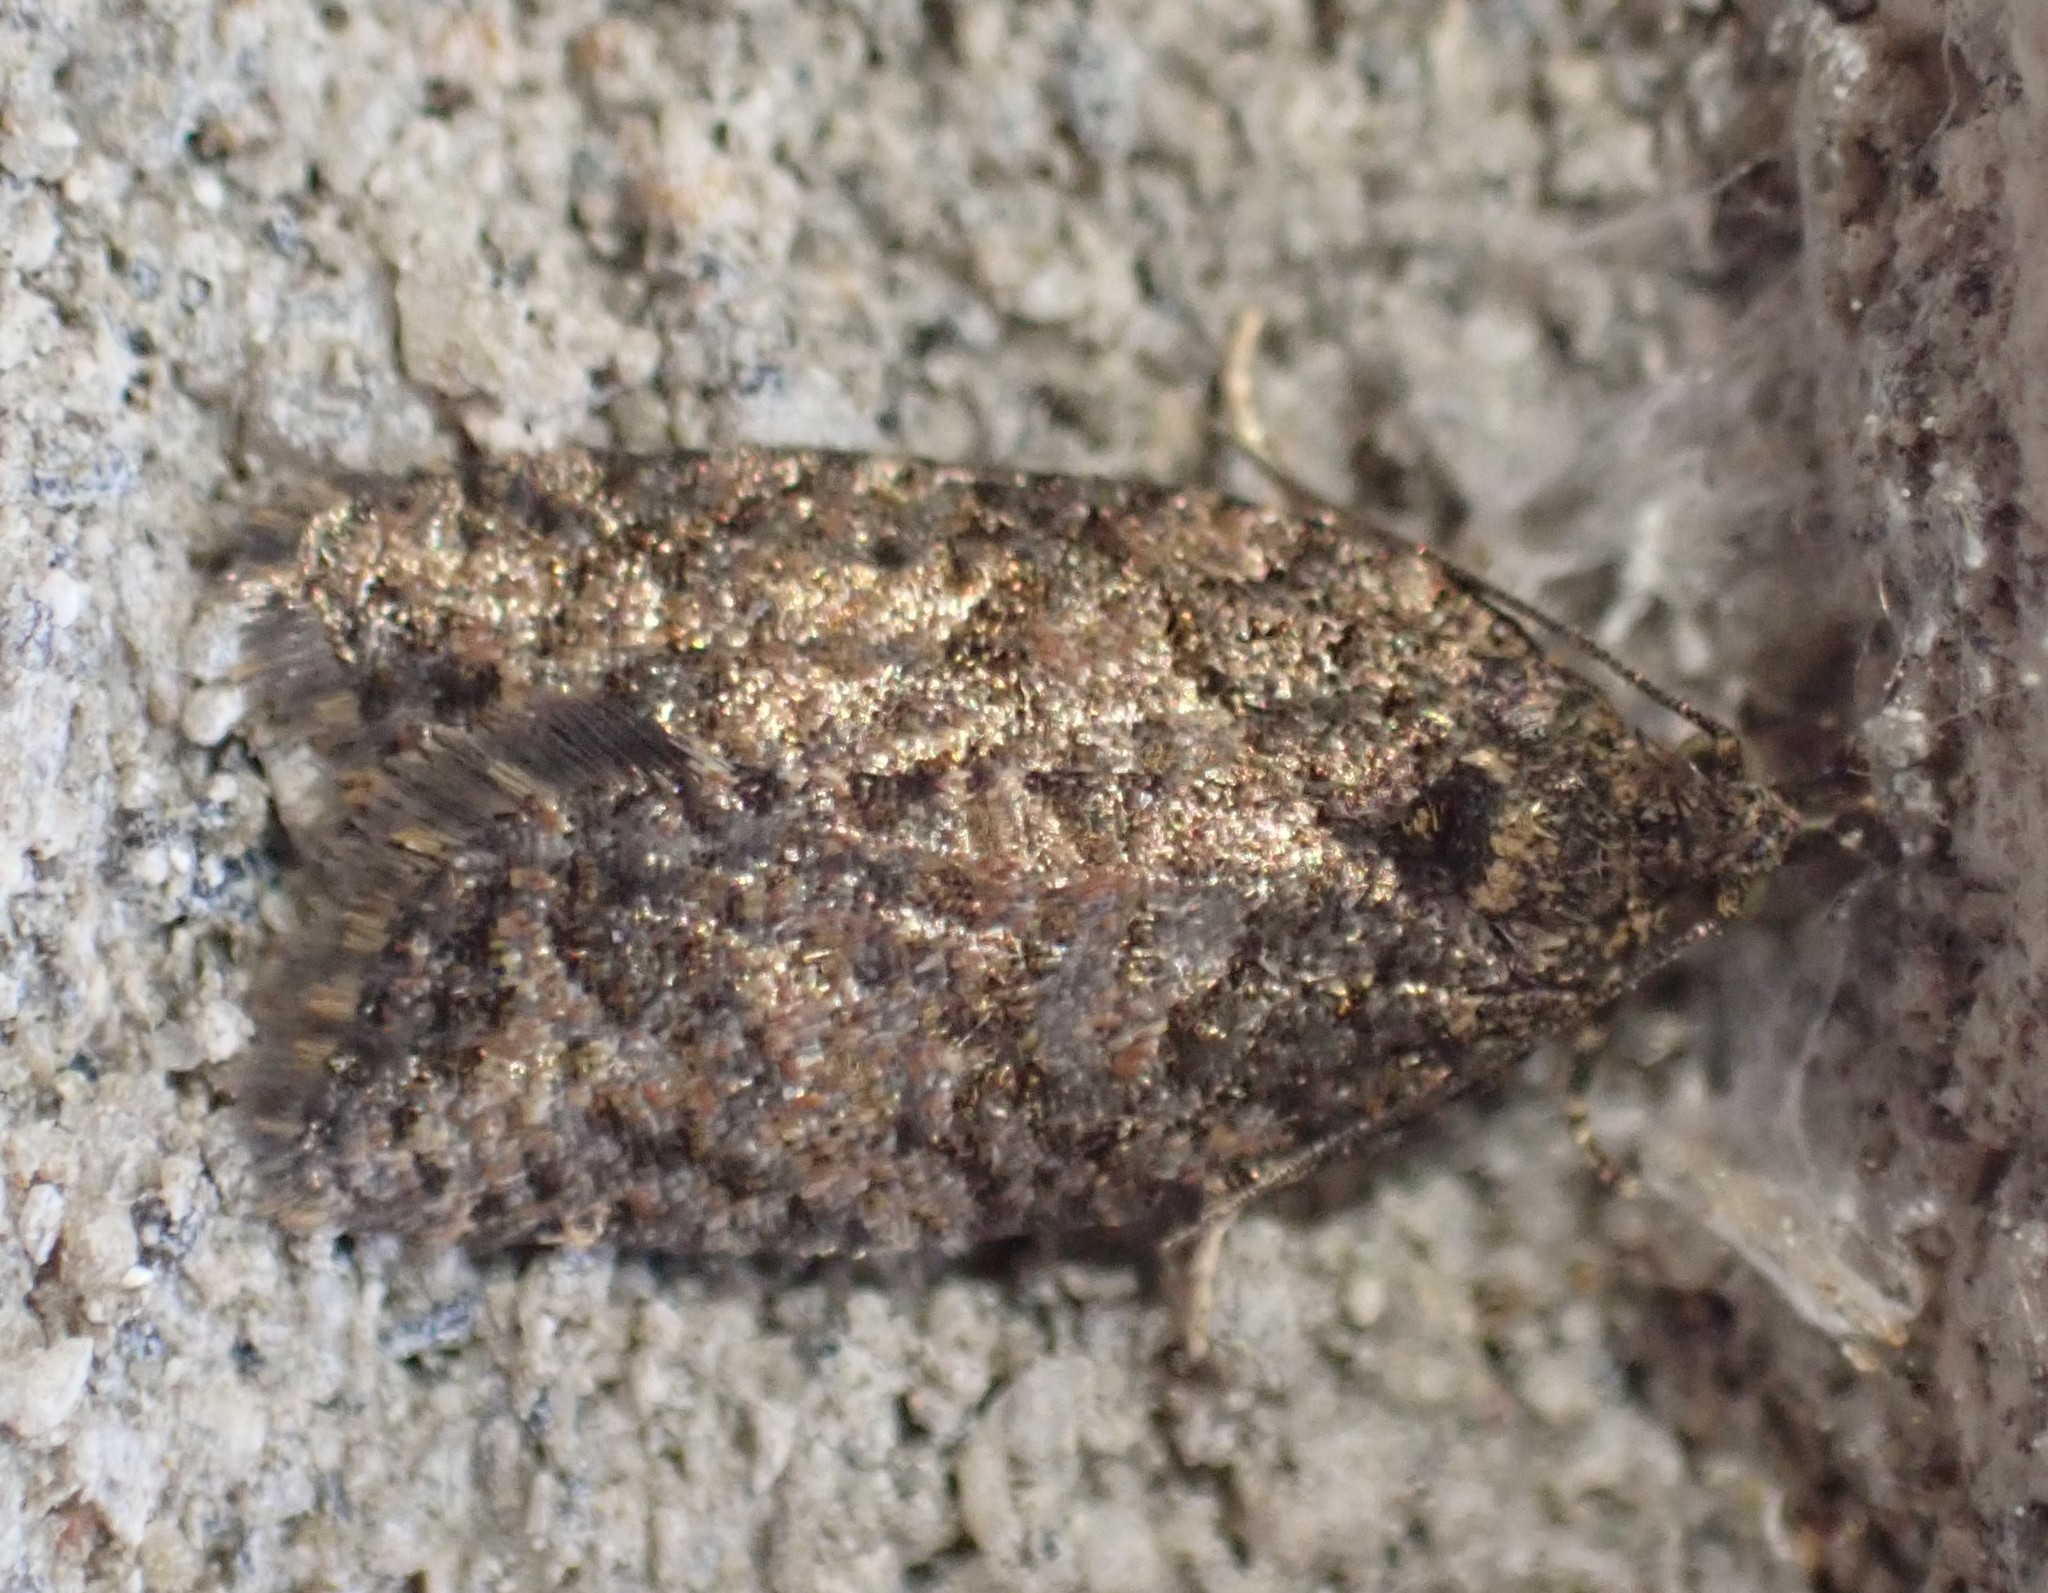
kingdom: Animalia
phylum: Arthropoda
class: Insecta
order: Lepidoptera
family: Tortricidae
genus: Capua
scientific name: Capua intractana
